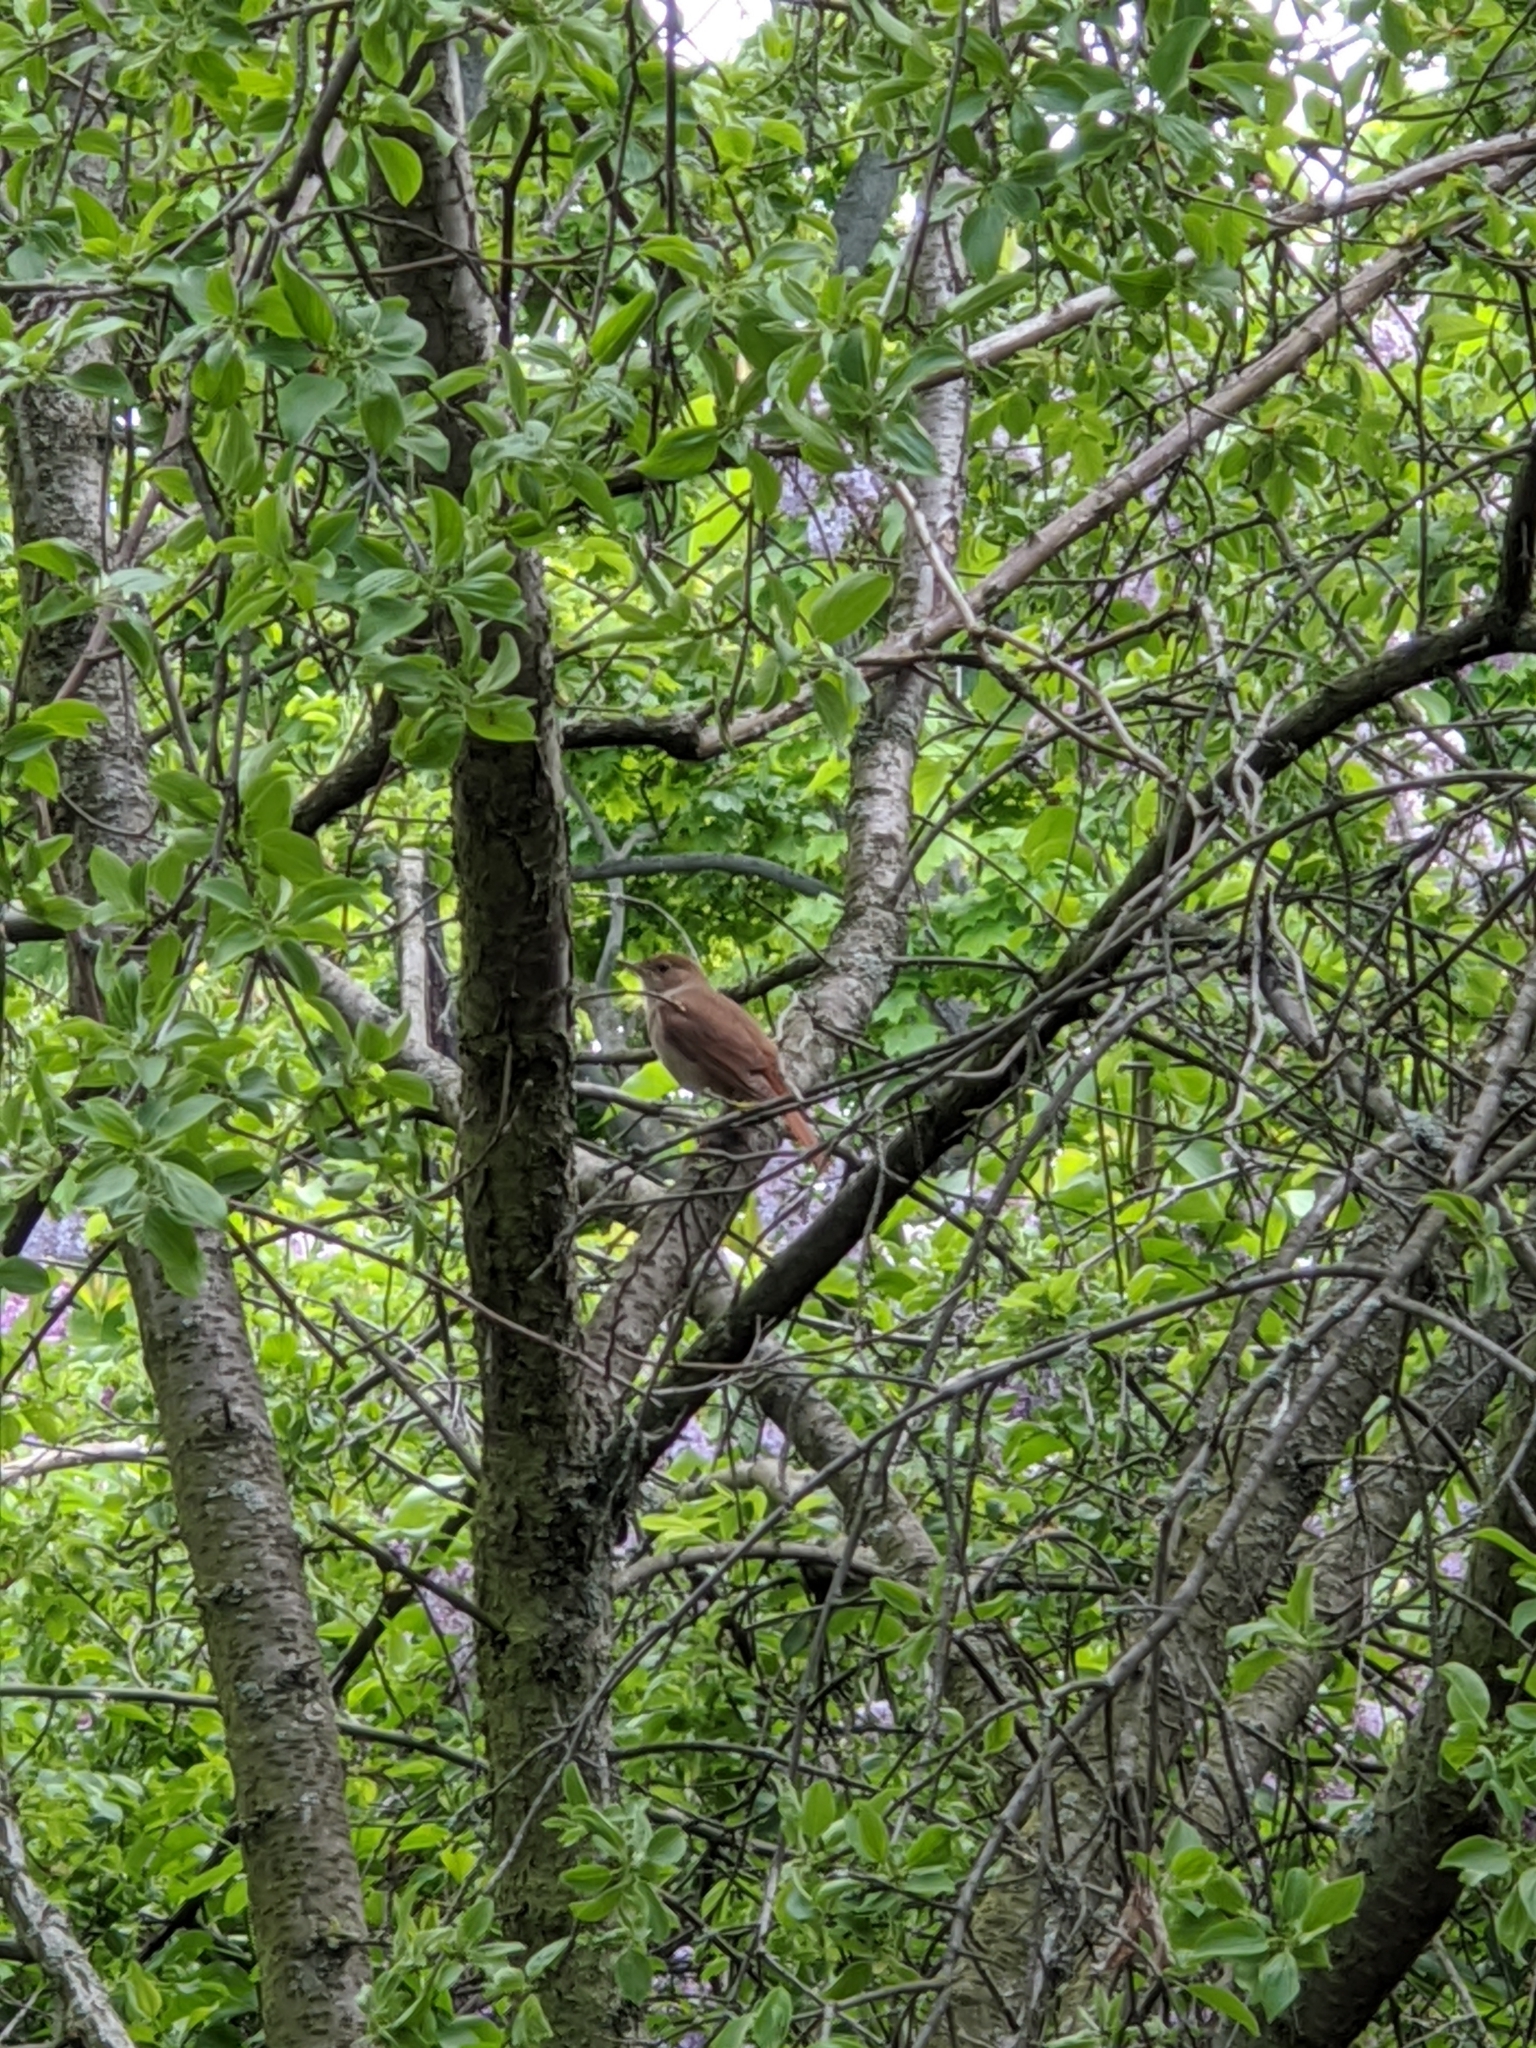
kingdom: Animalia
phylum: Chordata
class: Aves
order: Passeriformes
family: Muscicapidae
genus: Luscinia
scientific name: Luscinia megarhynchos
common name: Common nightingale
